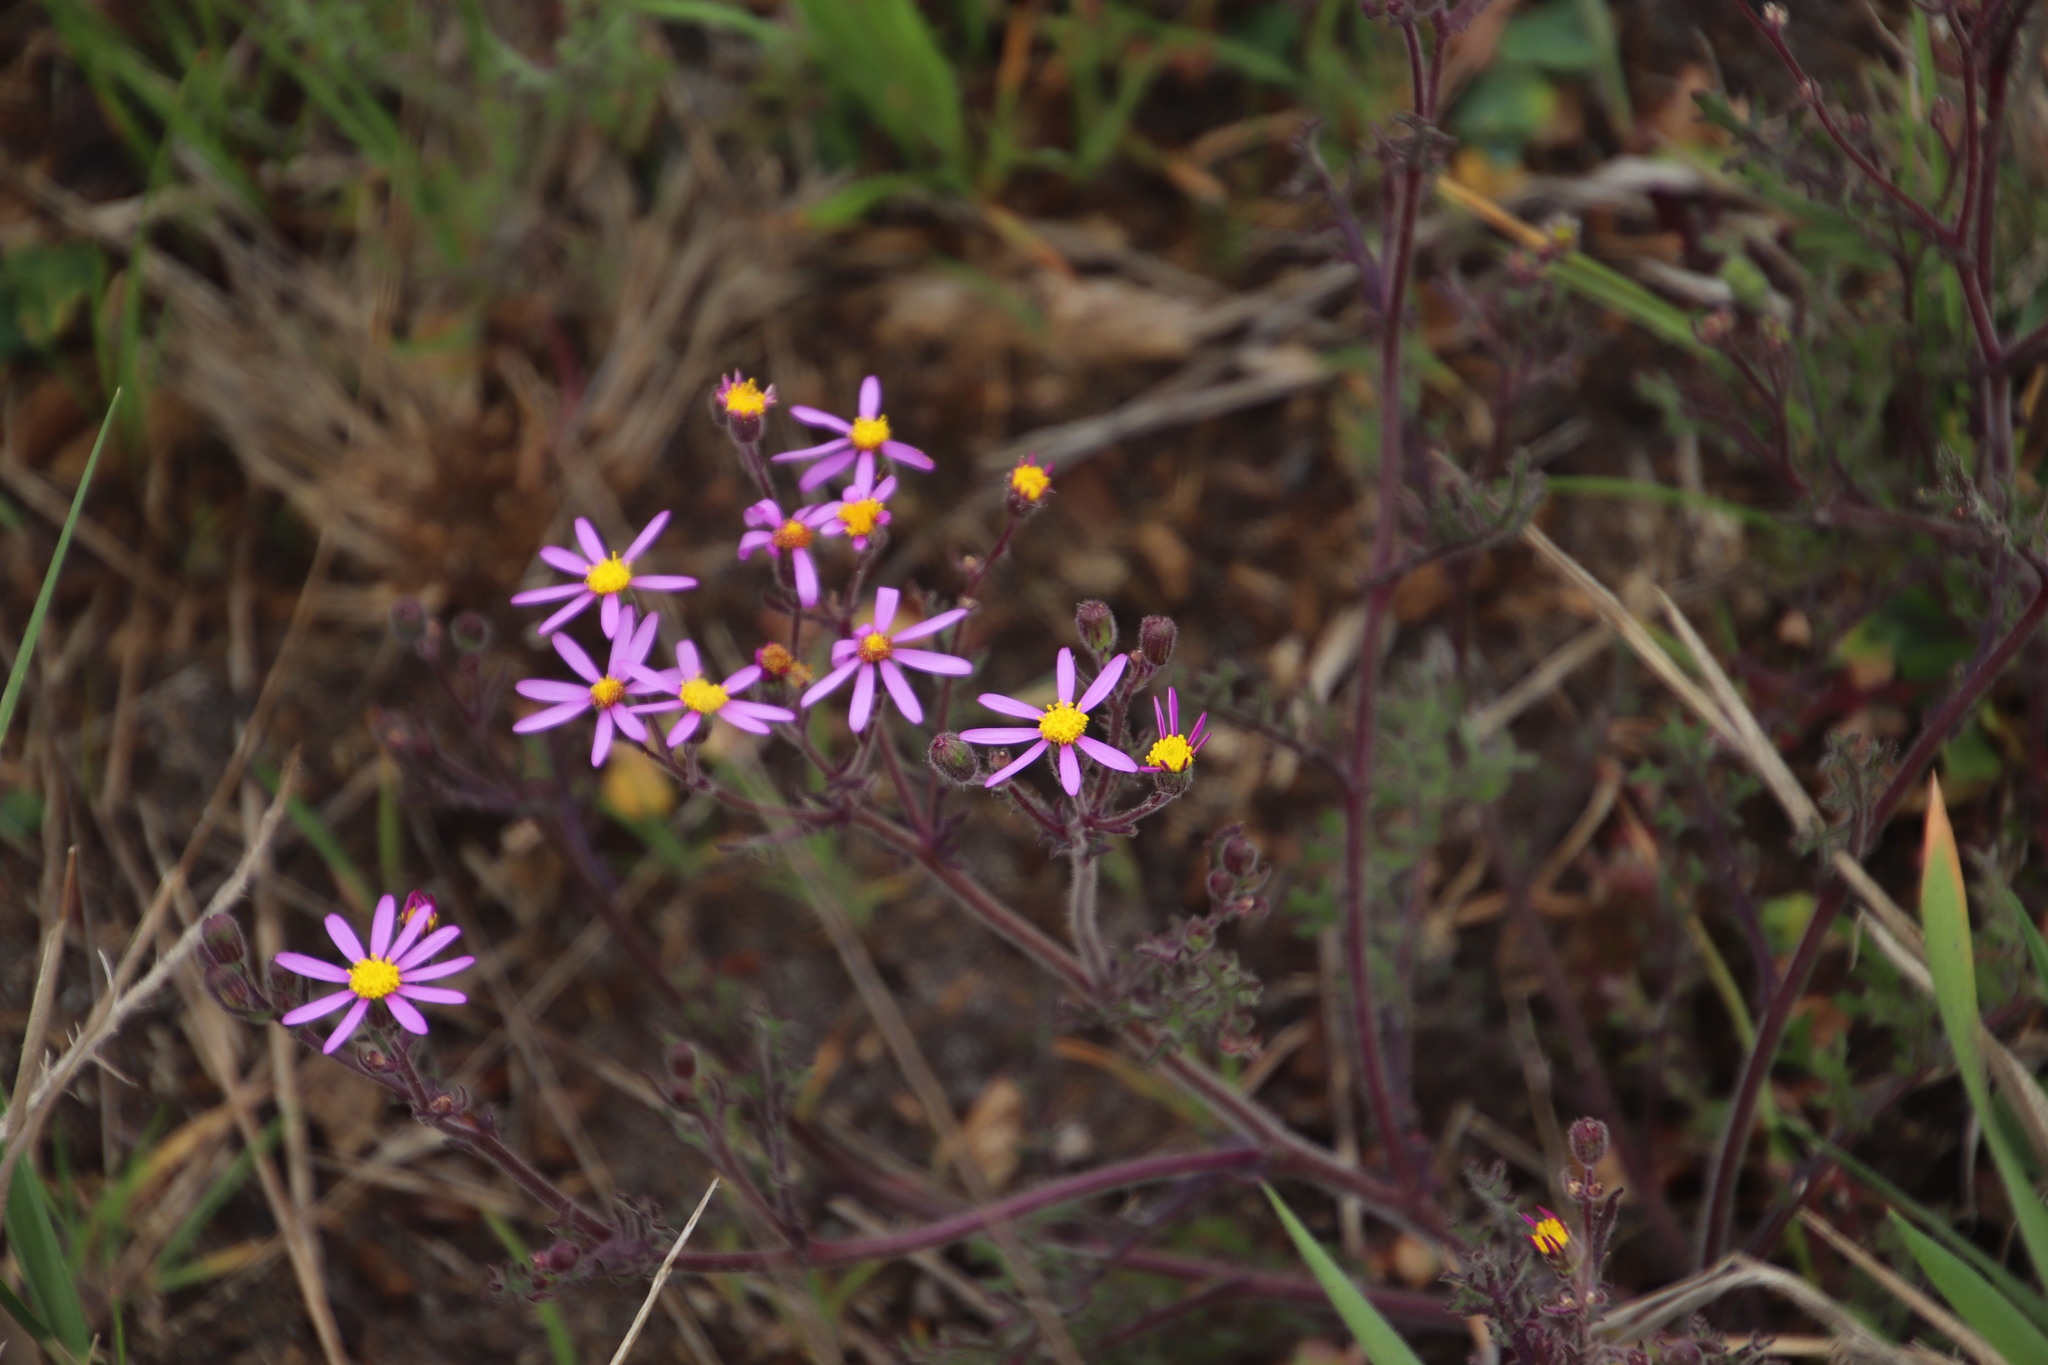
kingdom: Plantae
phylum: Tracheophyta
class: Magnoliopsida
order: Asterales
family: Asteraceae
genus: Senecio
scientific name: Senecio arenarius
